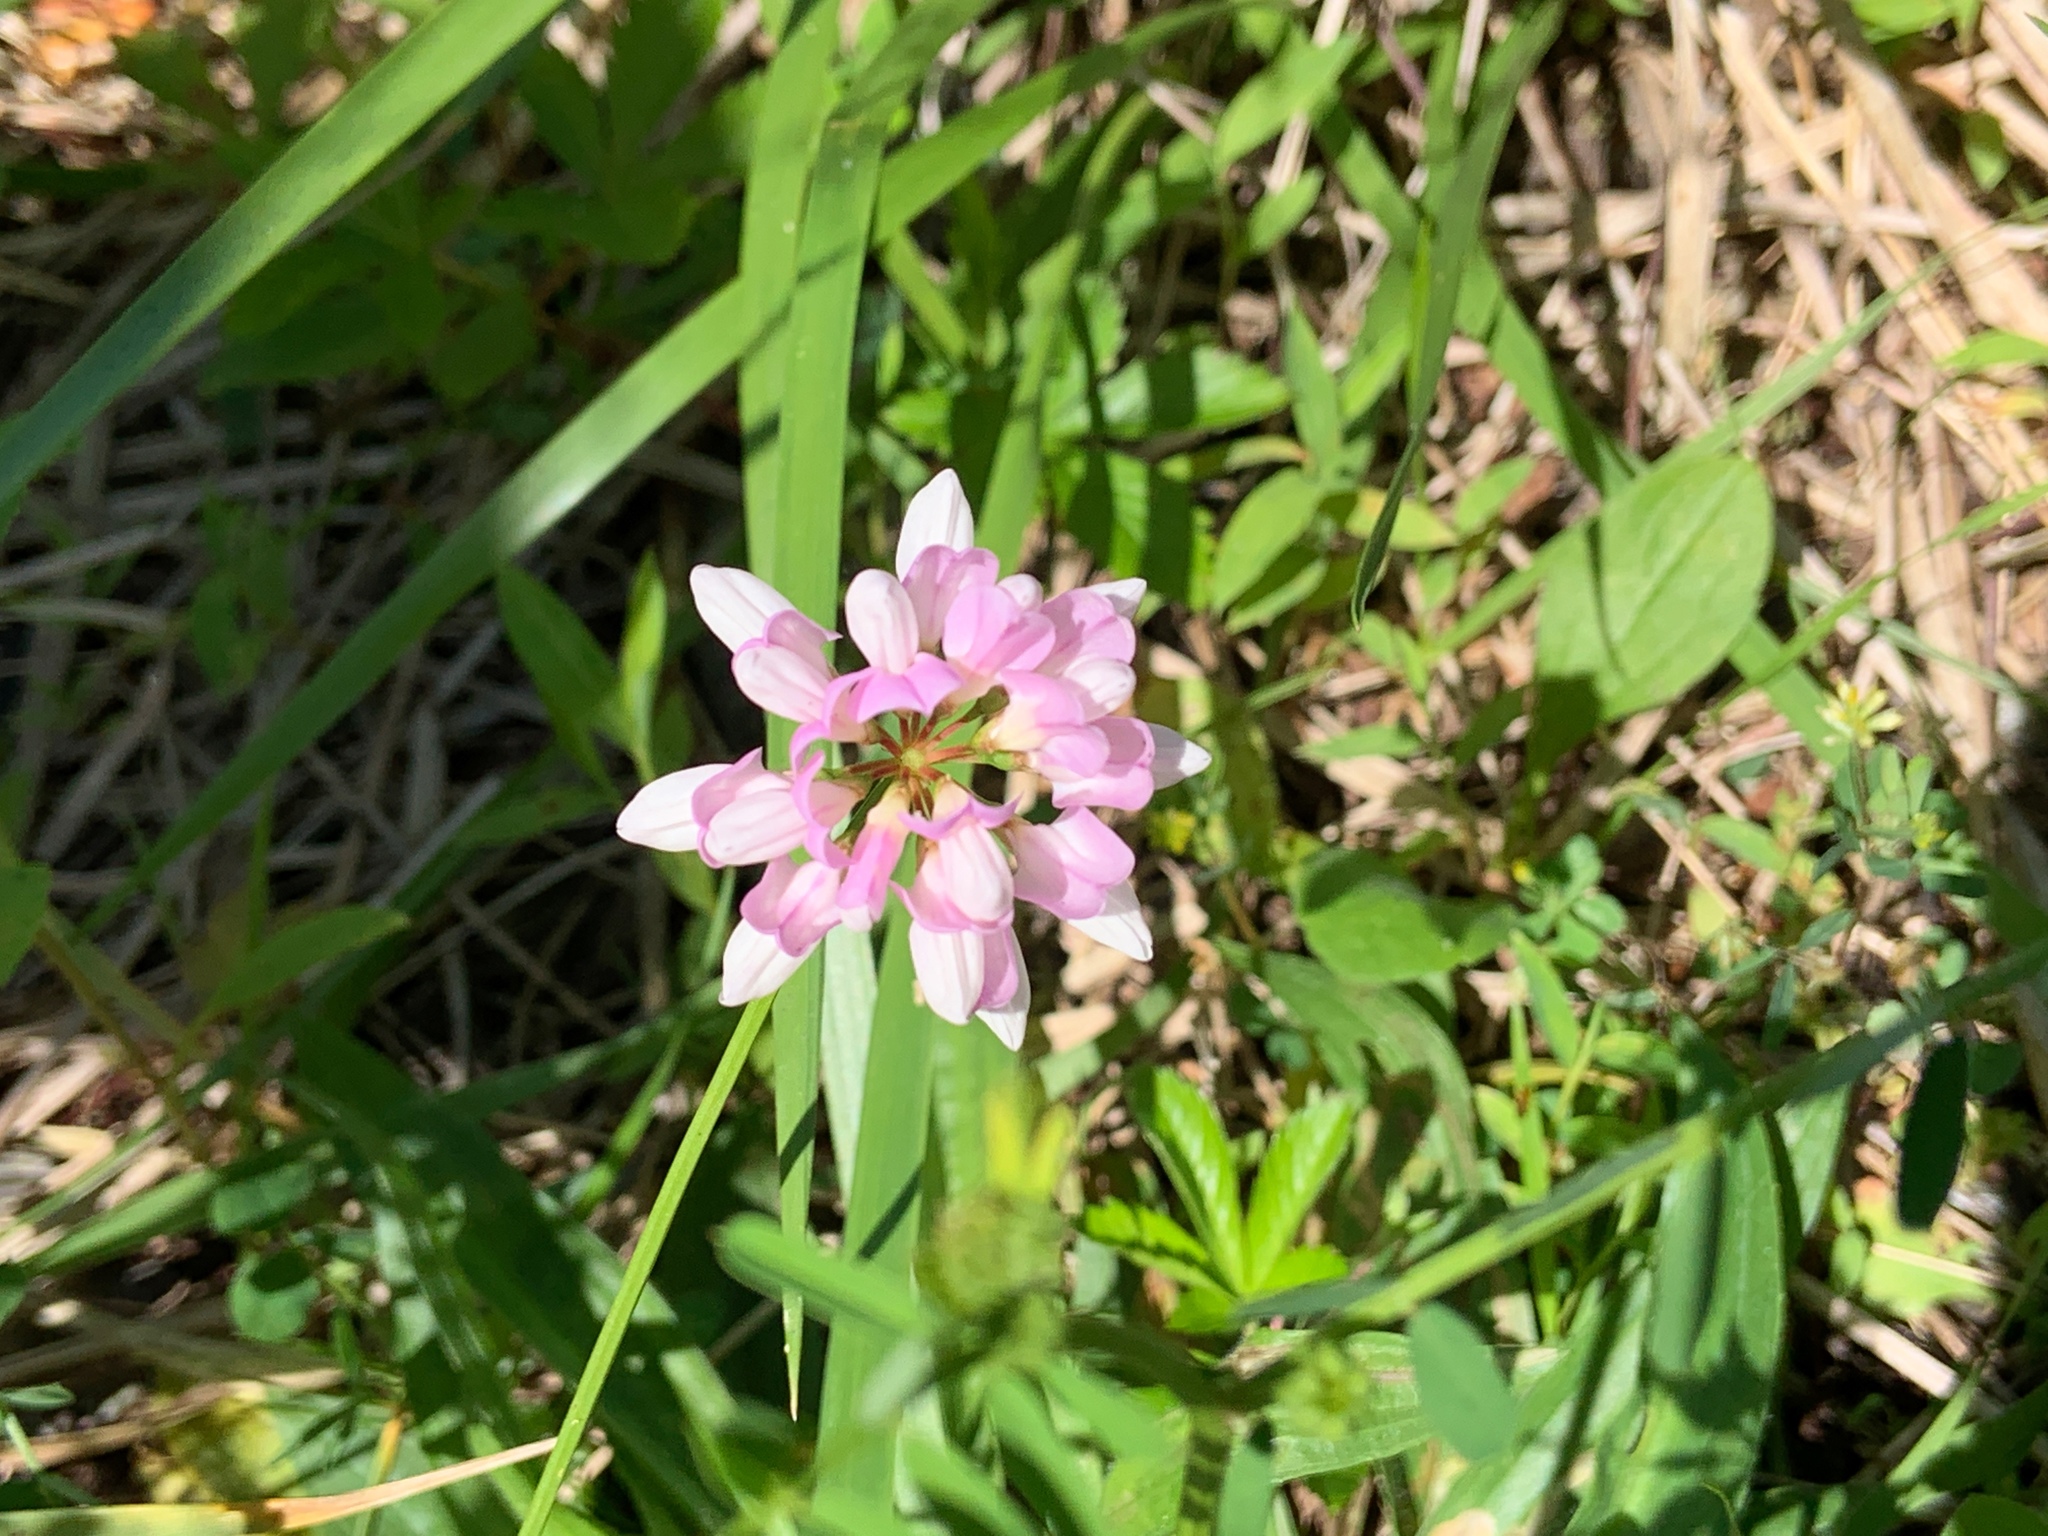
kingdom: Plantae
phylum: Tracheophyta
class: Magnoliopsida
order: Fabales
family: Fabaceae
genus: Coronilla
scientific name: Coronilla varia
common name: Crownvetch
